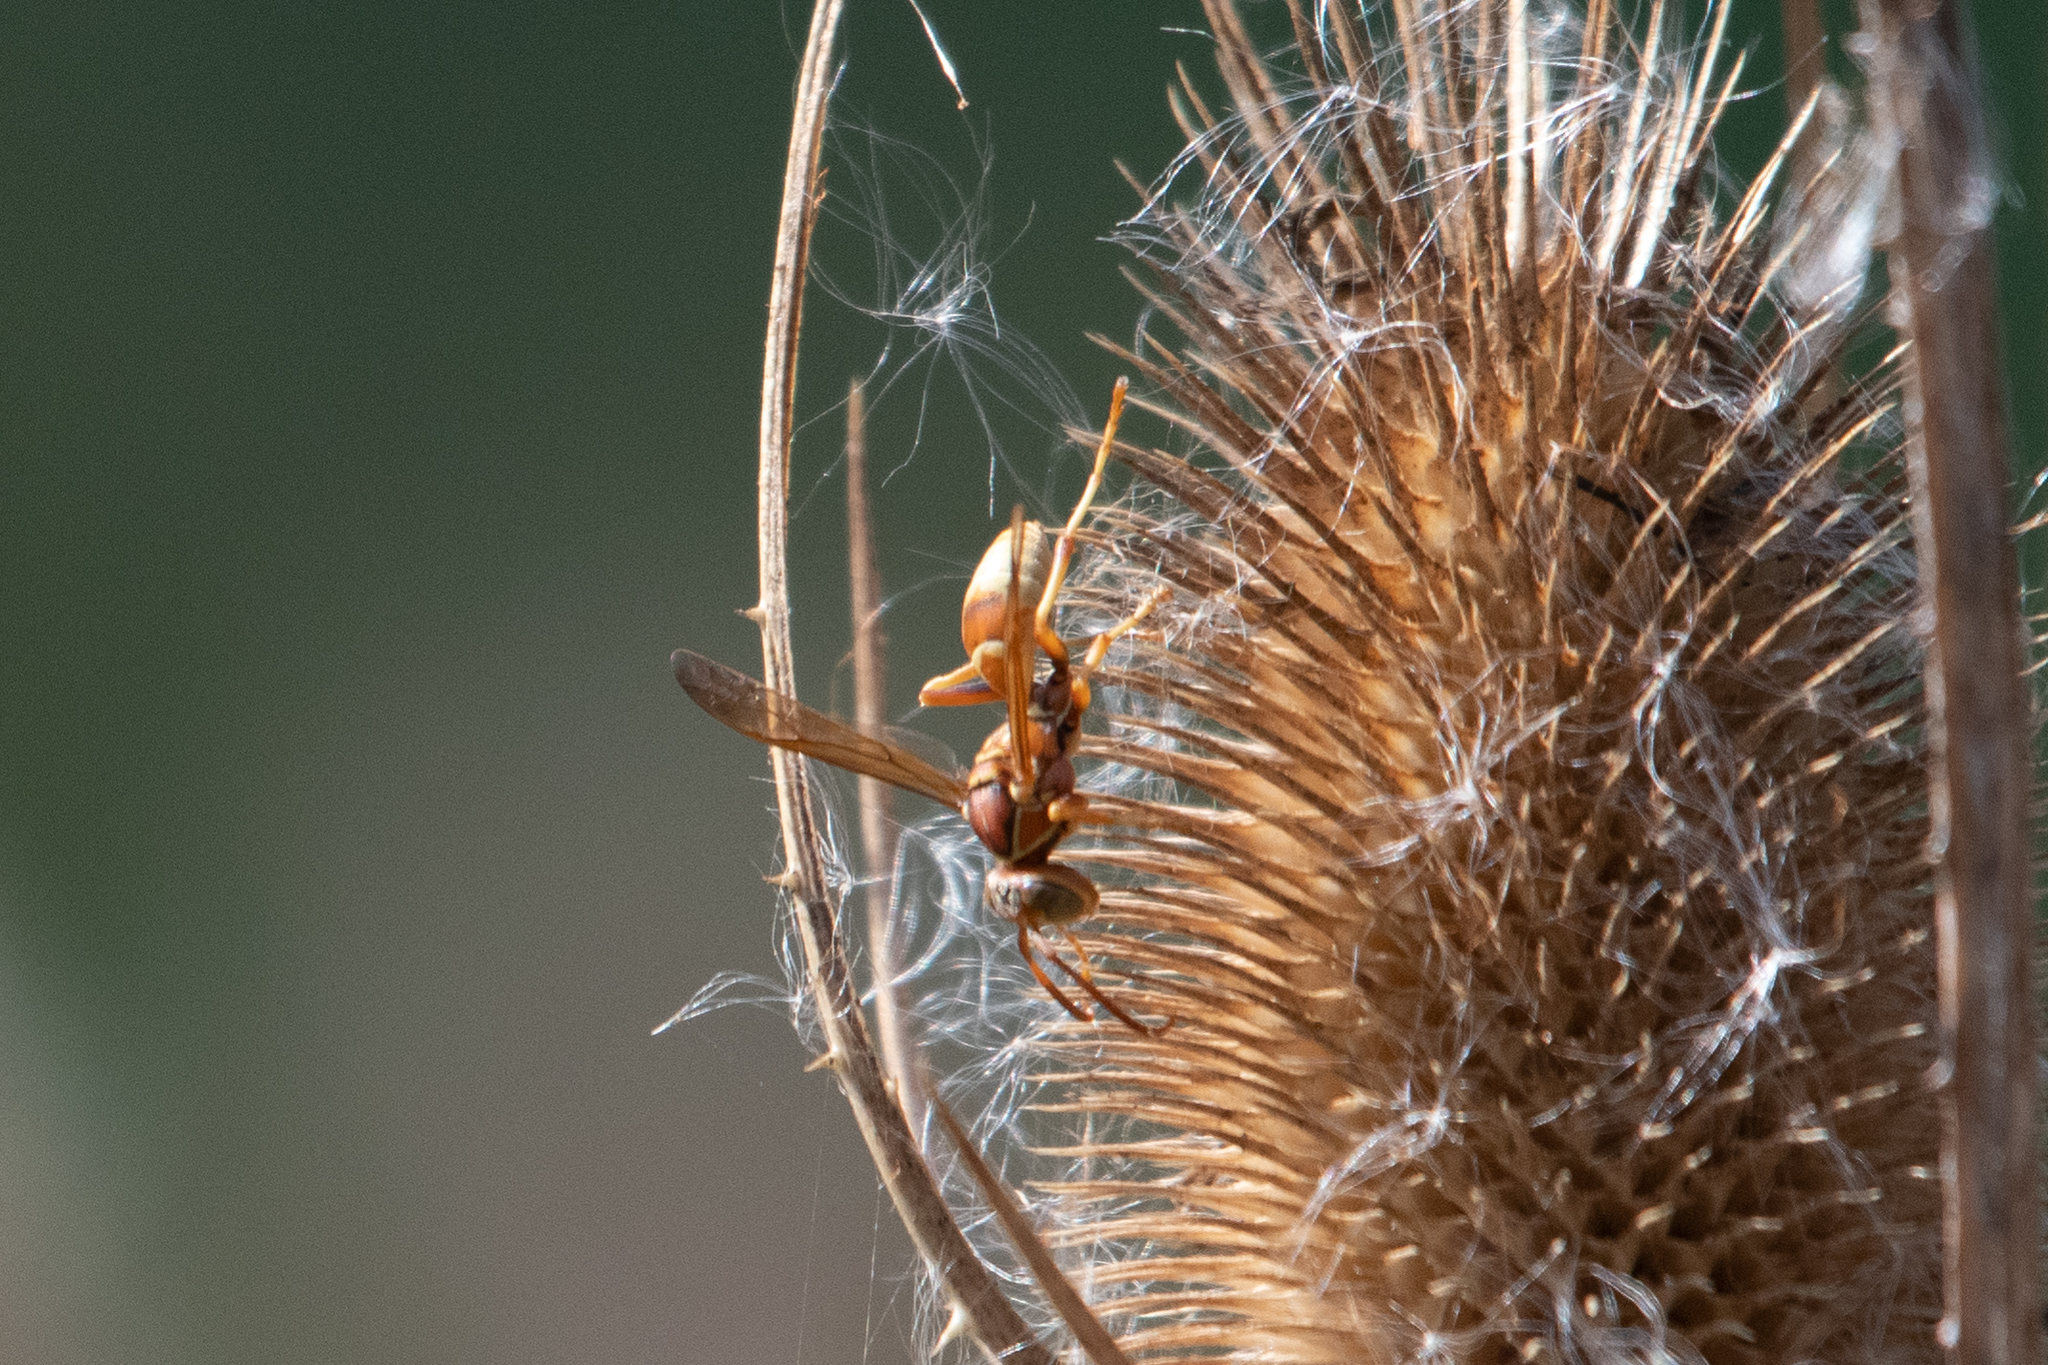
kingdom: Animalia
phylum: Arthropoda
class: Insecta
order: Hymenoptera
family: Eumenidae
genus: Polistes
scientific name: Polistes dorsalis
